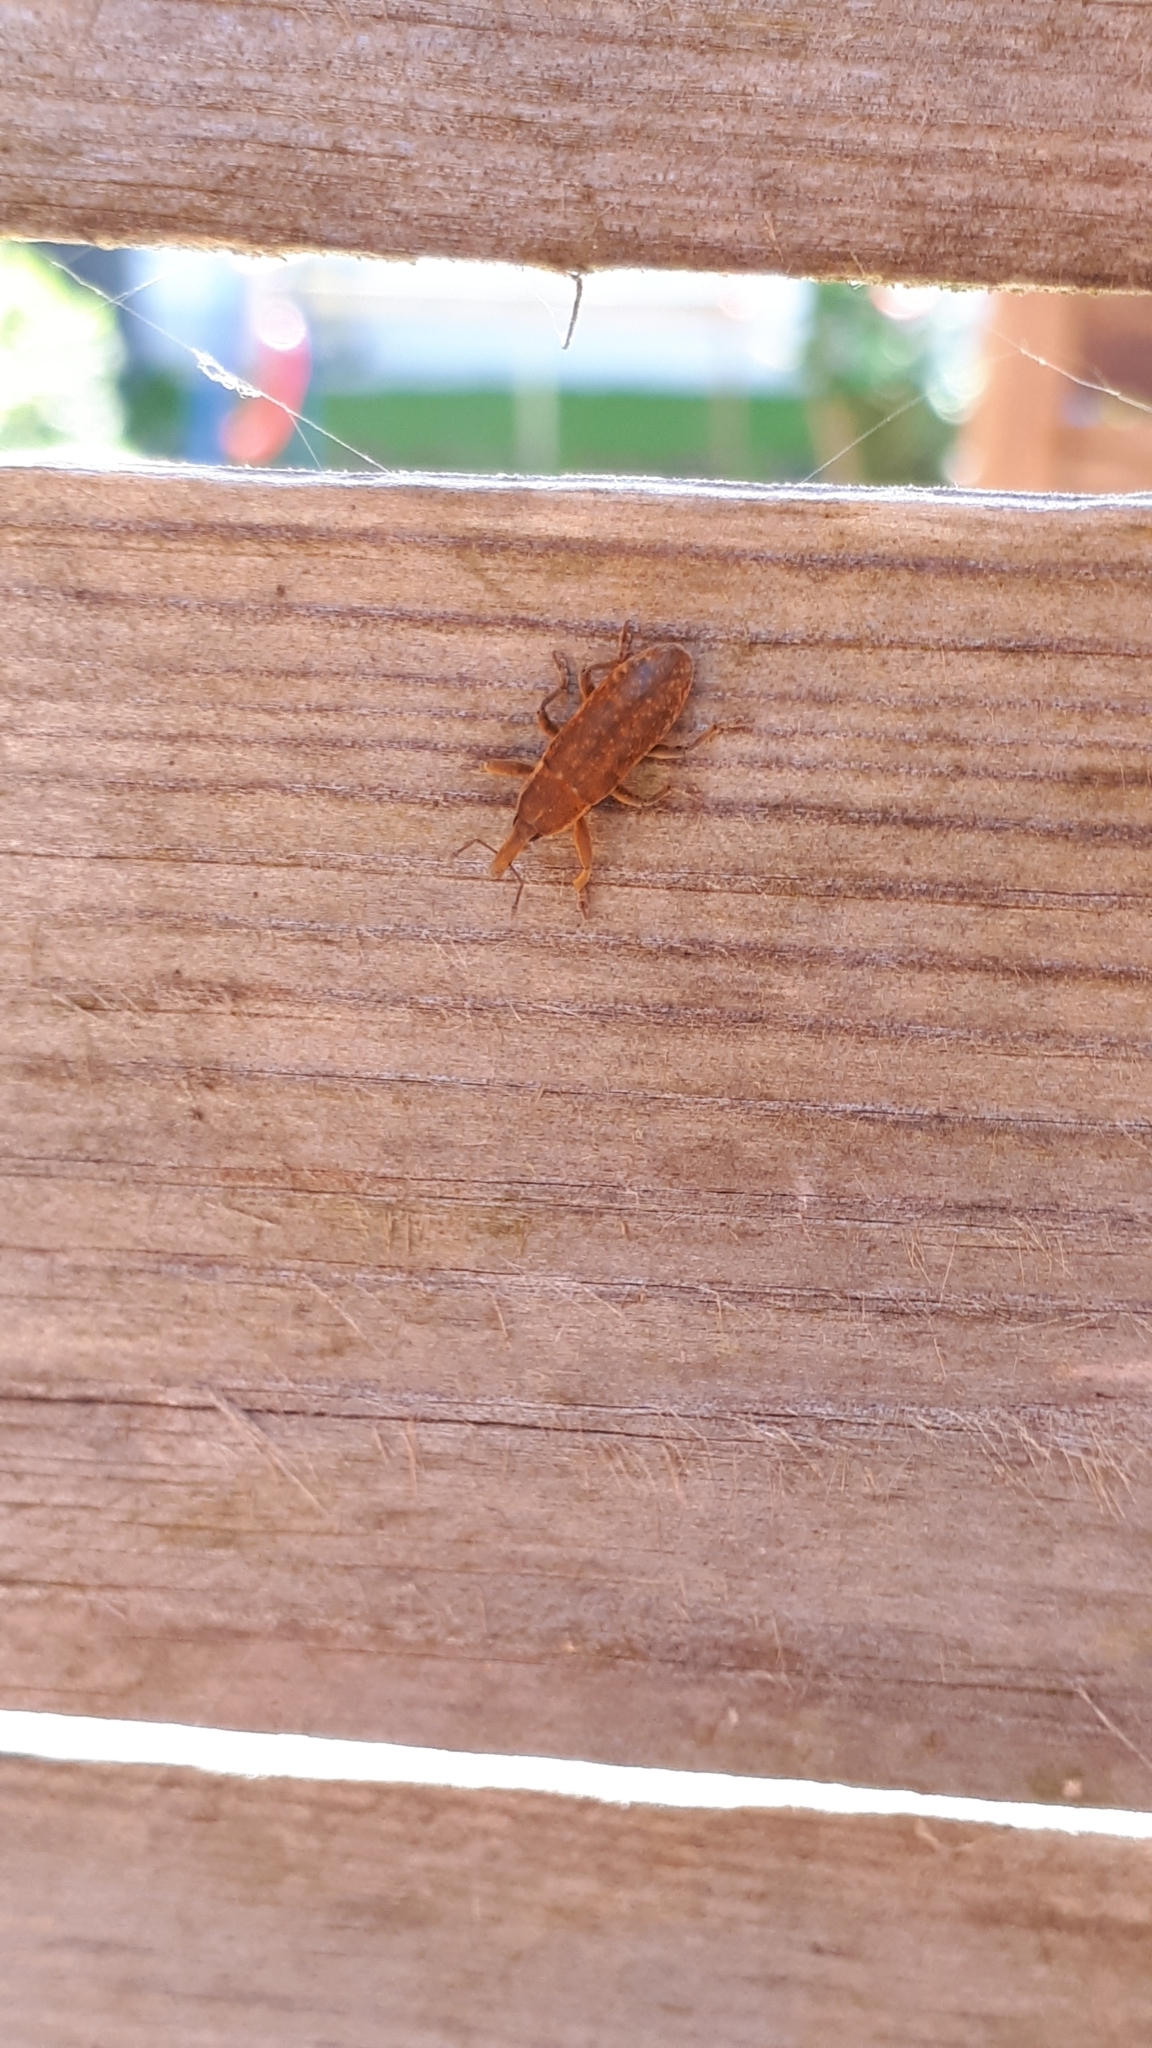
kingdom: Animalia
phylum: Arthropoda
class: Insecta
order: Coleoptera
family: Curculionidae
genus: Lixus
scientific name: Lixus punctiventris
